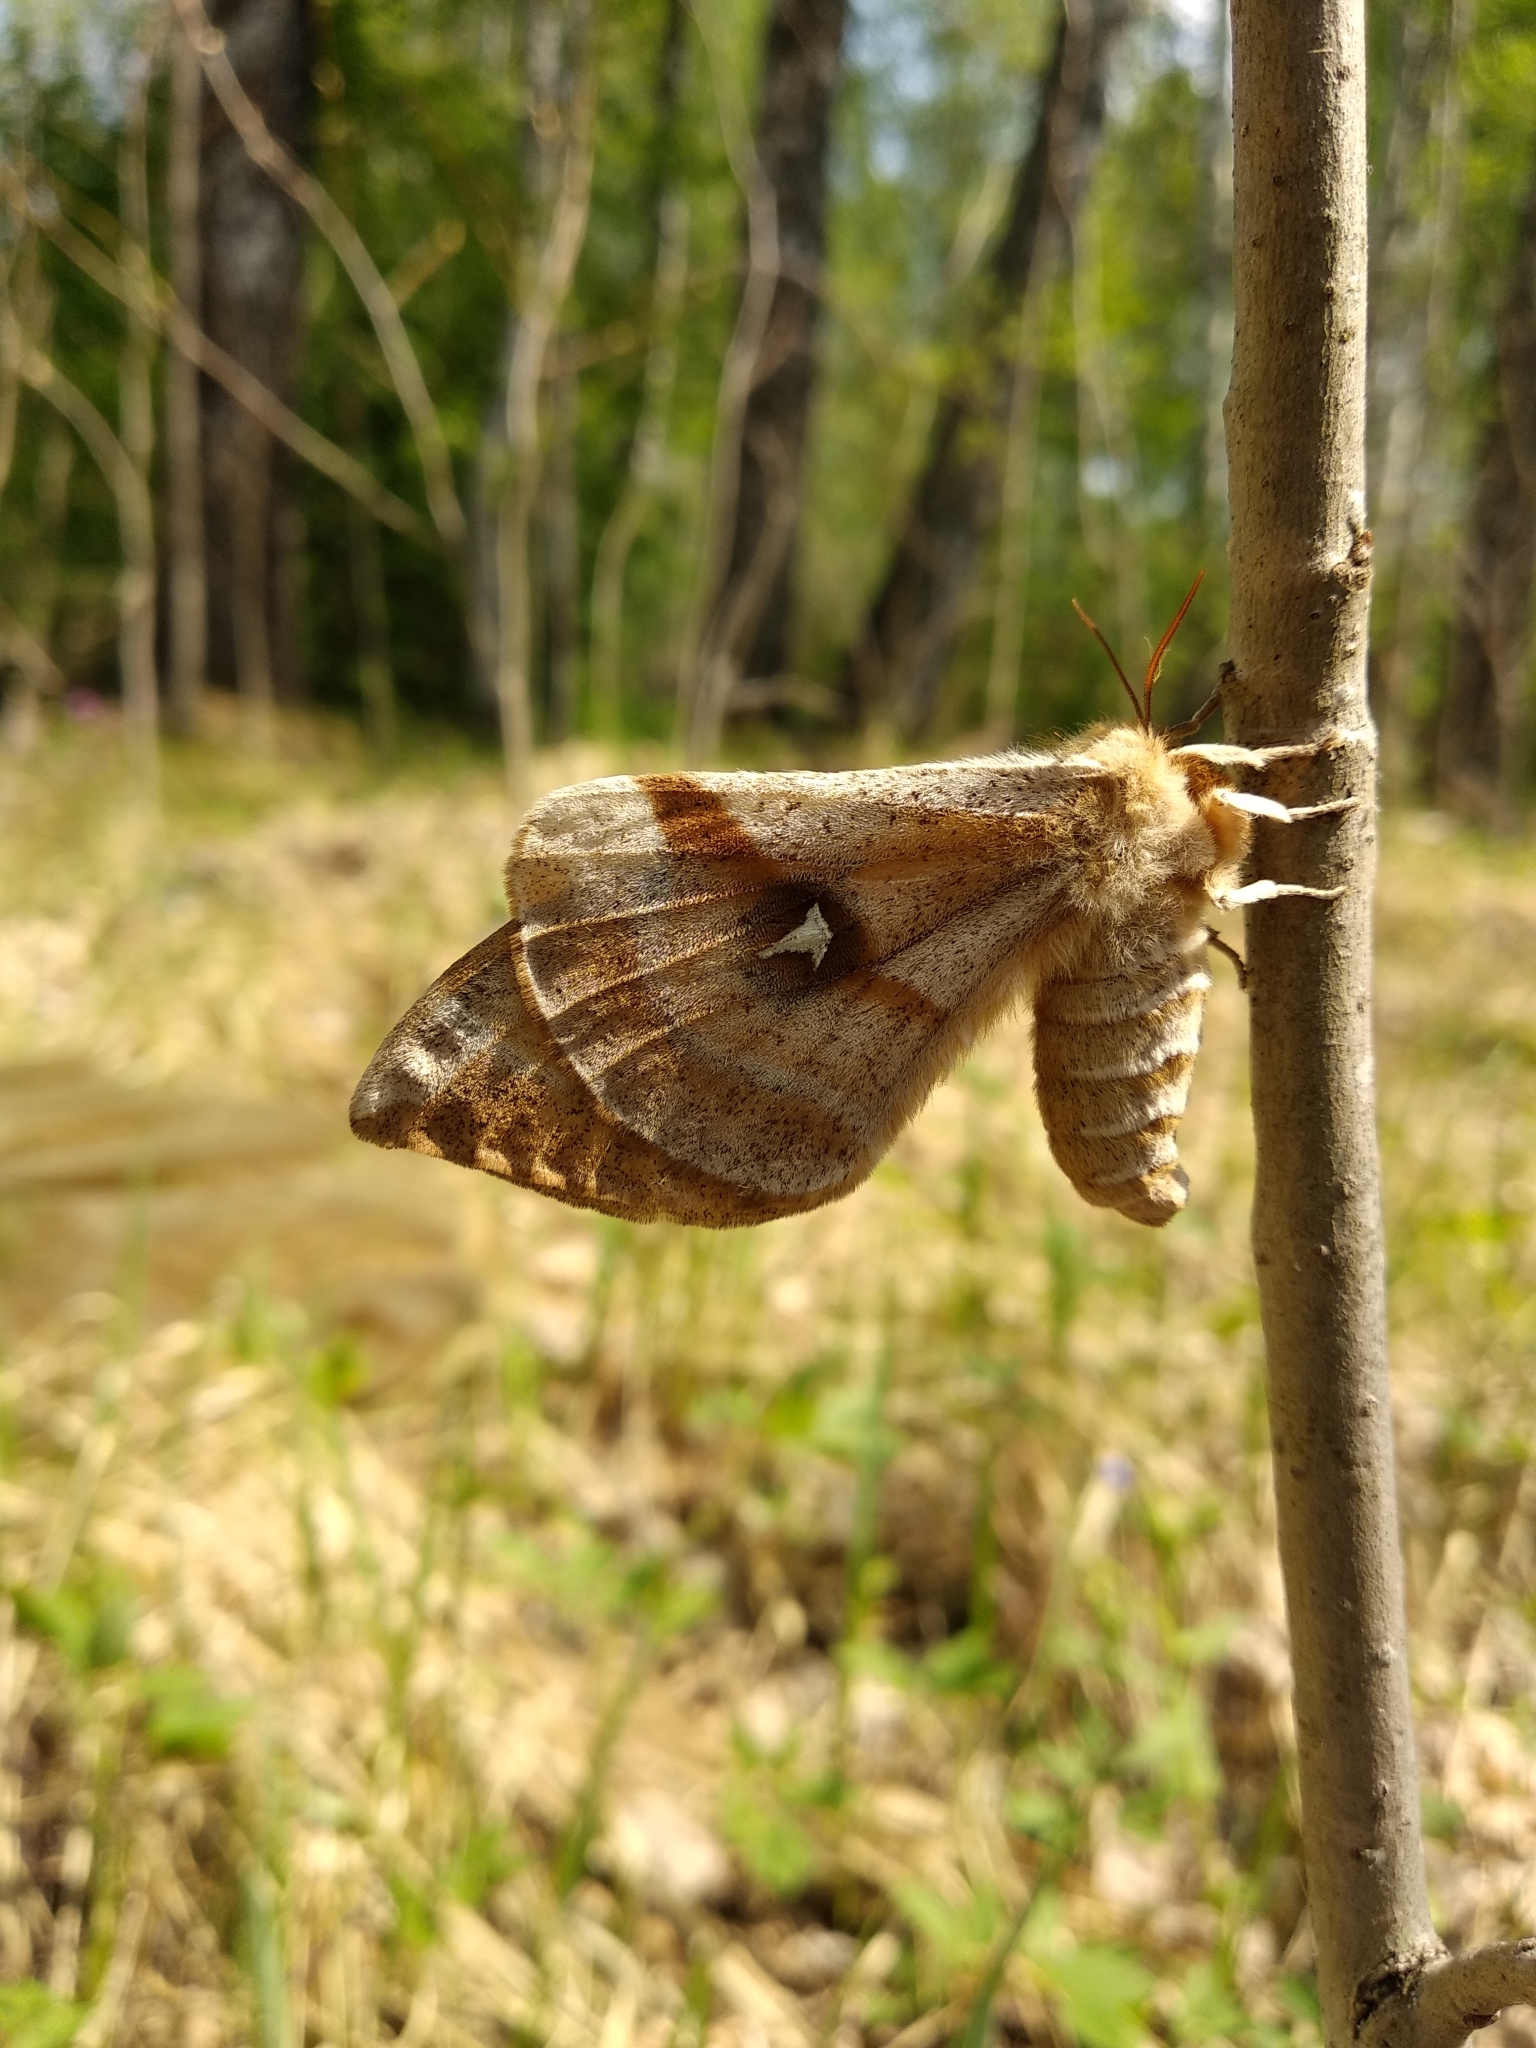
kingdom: Animalia
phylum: Arthropoda
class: Insecta
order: Lepidoptera
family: Saturniidae
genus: Aglia
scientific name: Aglia tau
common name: Tau emperor
